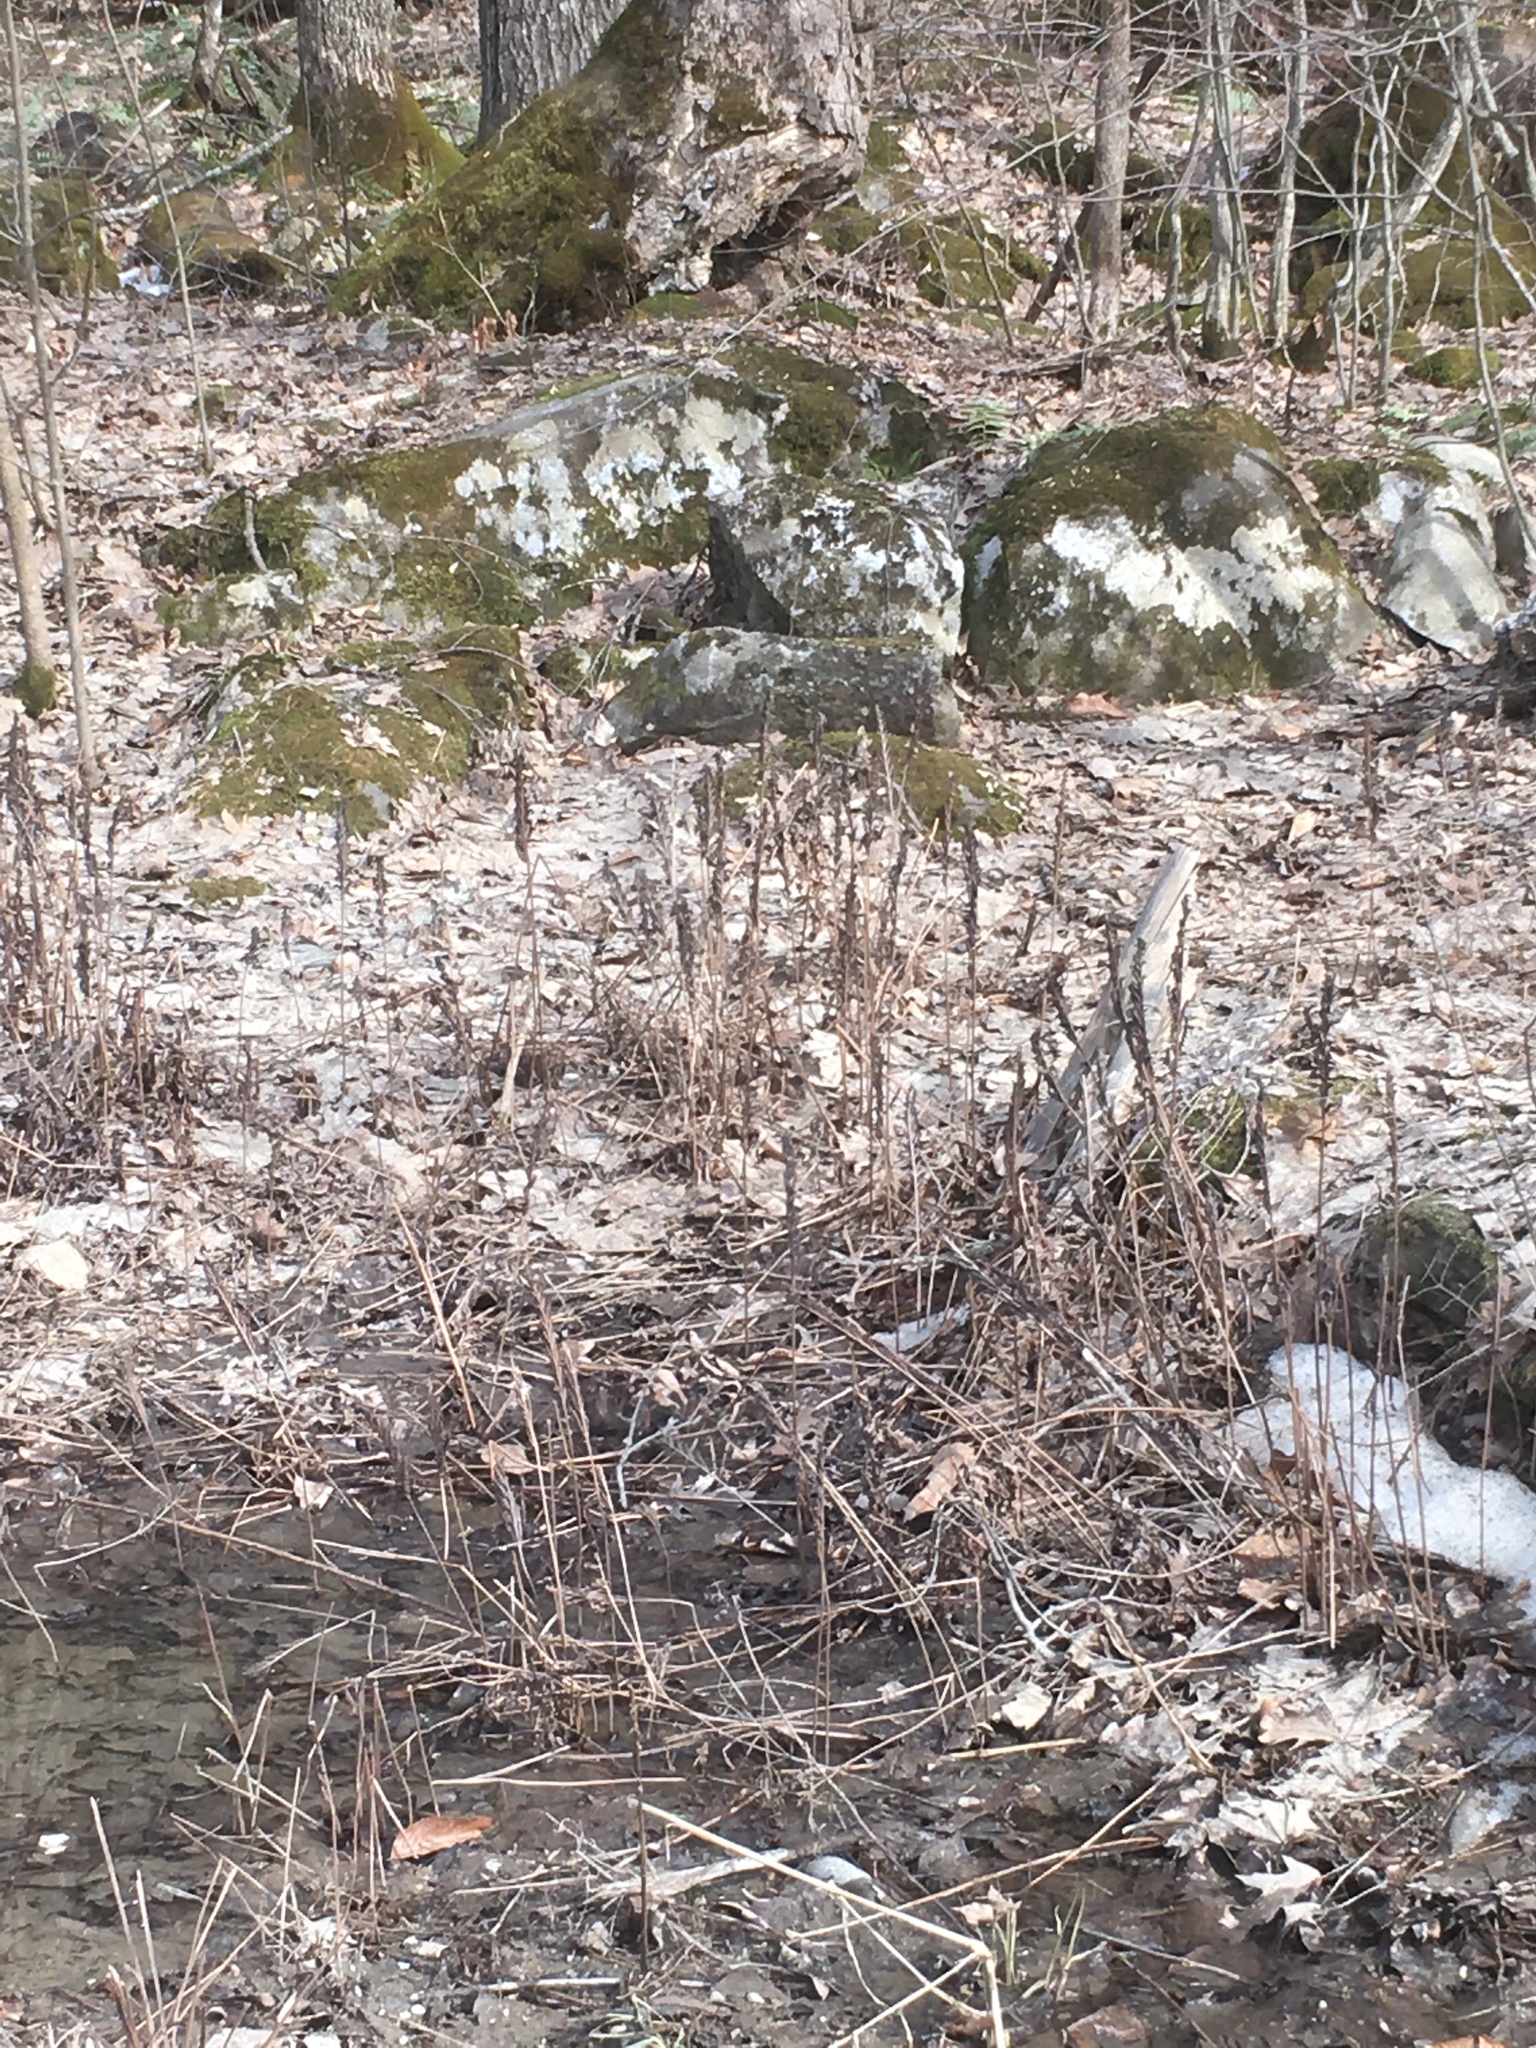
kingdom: Plantae
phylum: Tracheophyta
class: Polypodiopsida
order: Polypodiales
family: Onocleaceae
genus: Onoclea
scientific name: Onoclea sensibilis
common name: Sensitive fern
